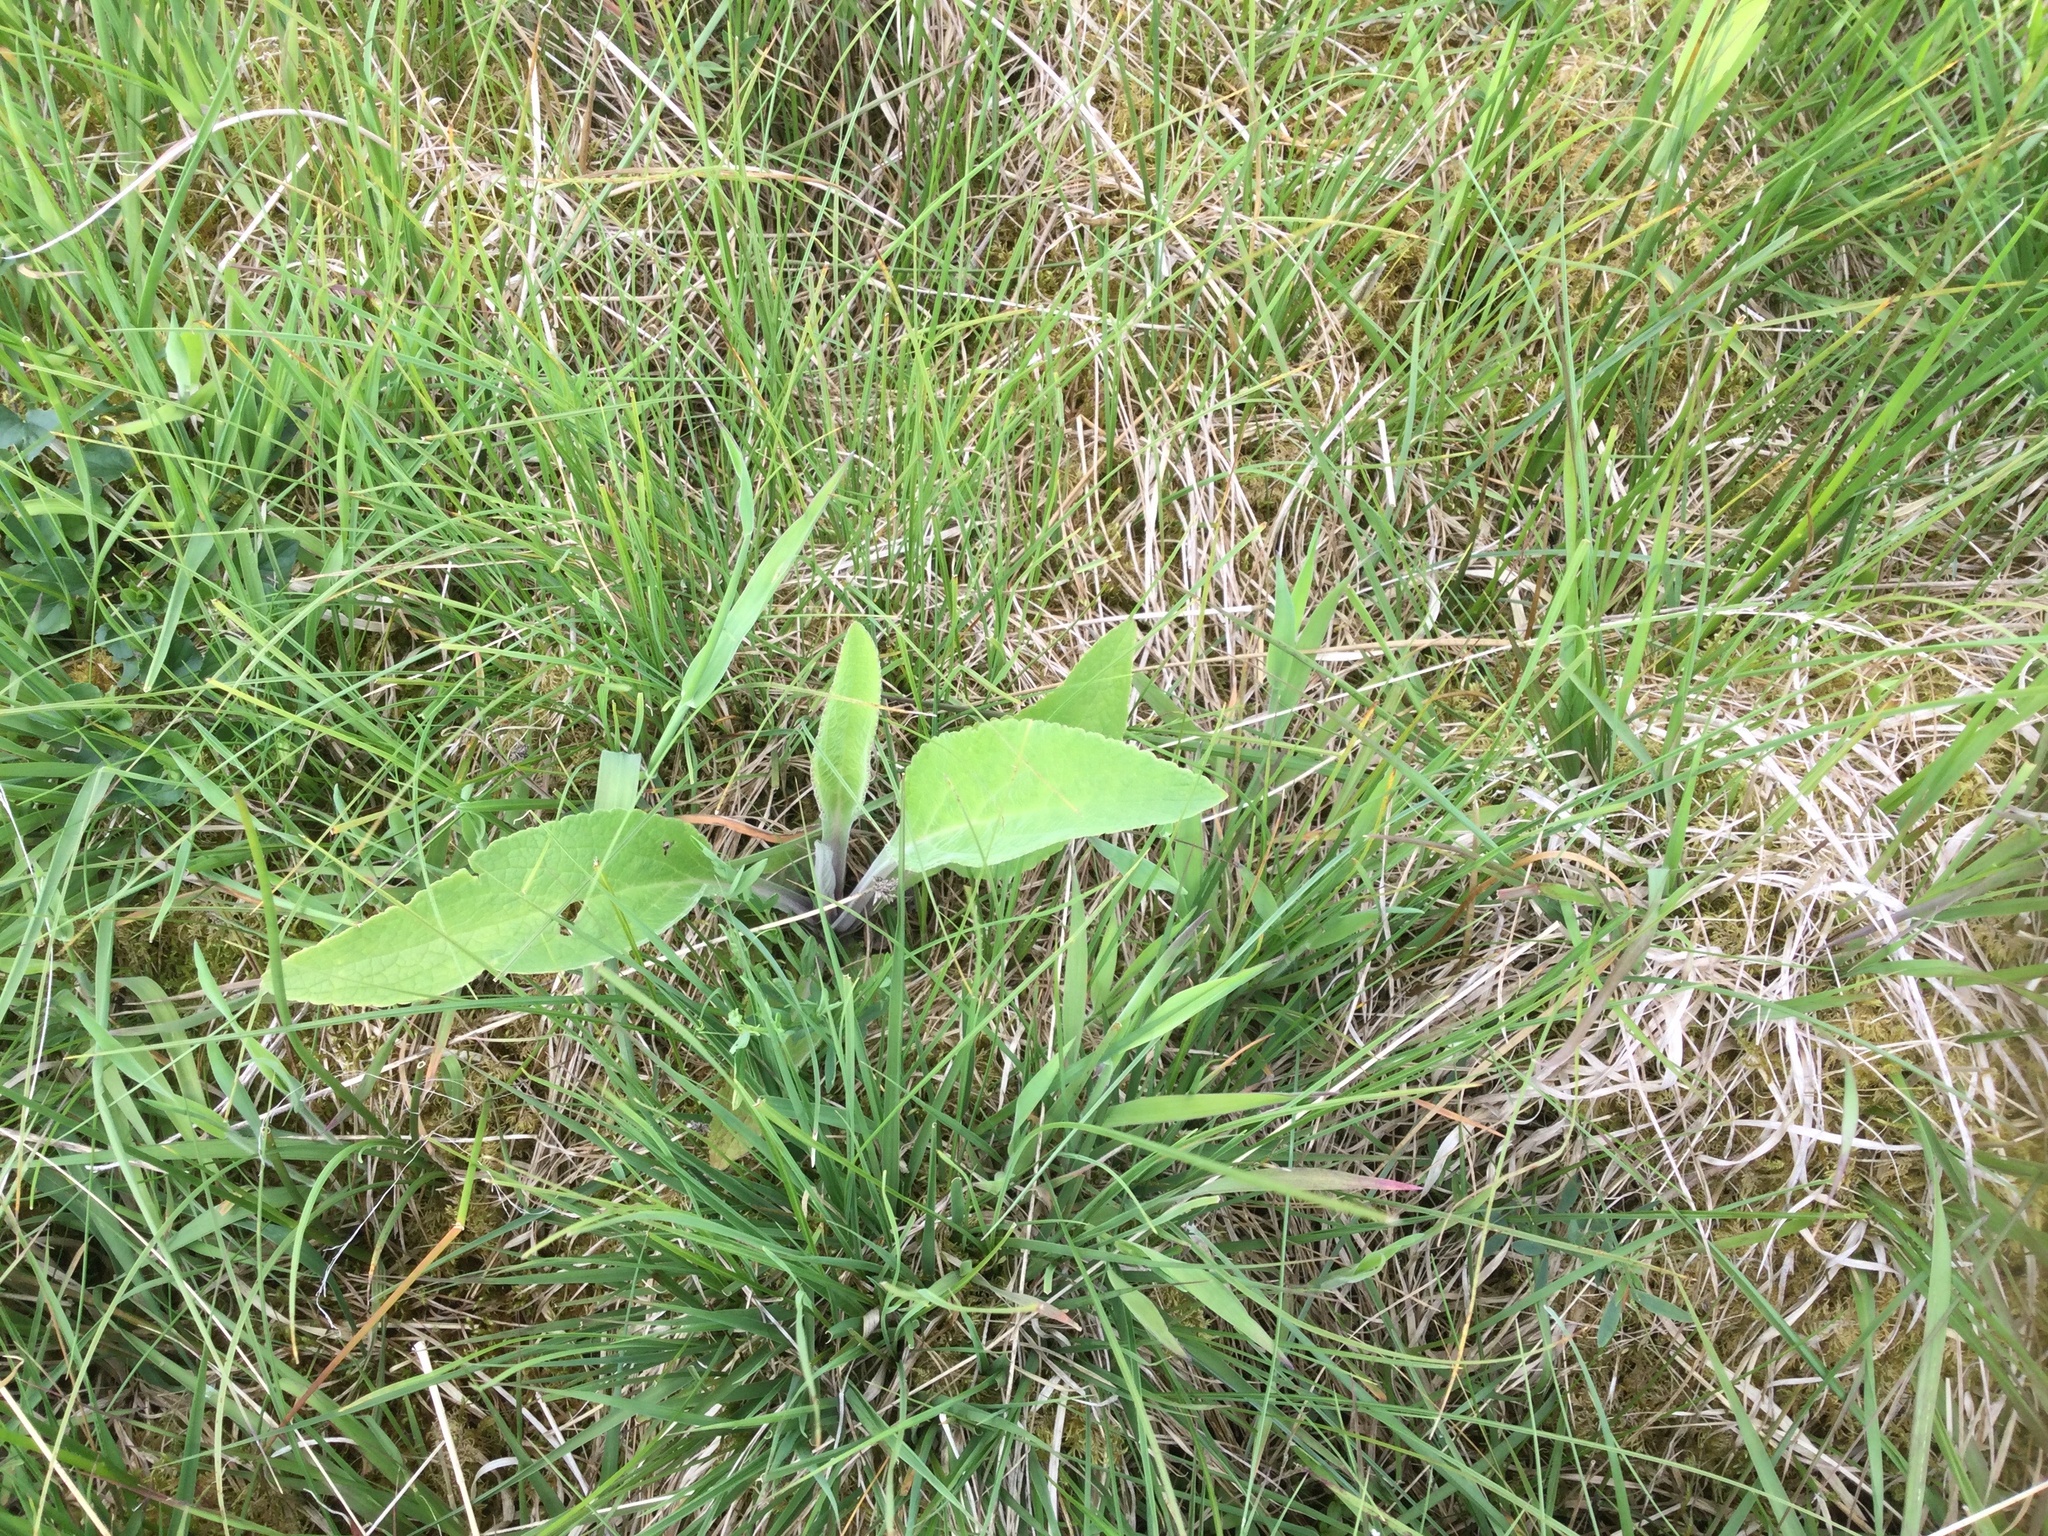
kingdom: Plantae
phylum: Tracheophyta
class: Magnoliopsida
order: Lamiales
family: Plantaginaceae
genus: Digitalis
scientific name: Digitalis purpurea
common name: Foxglove
